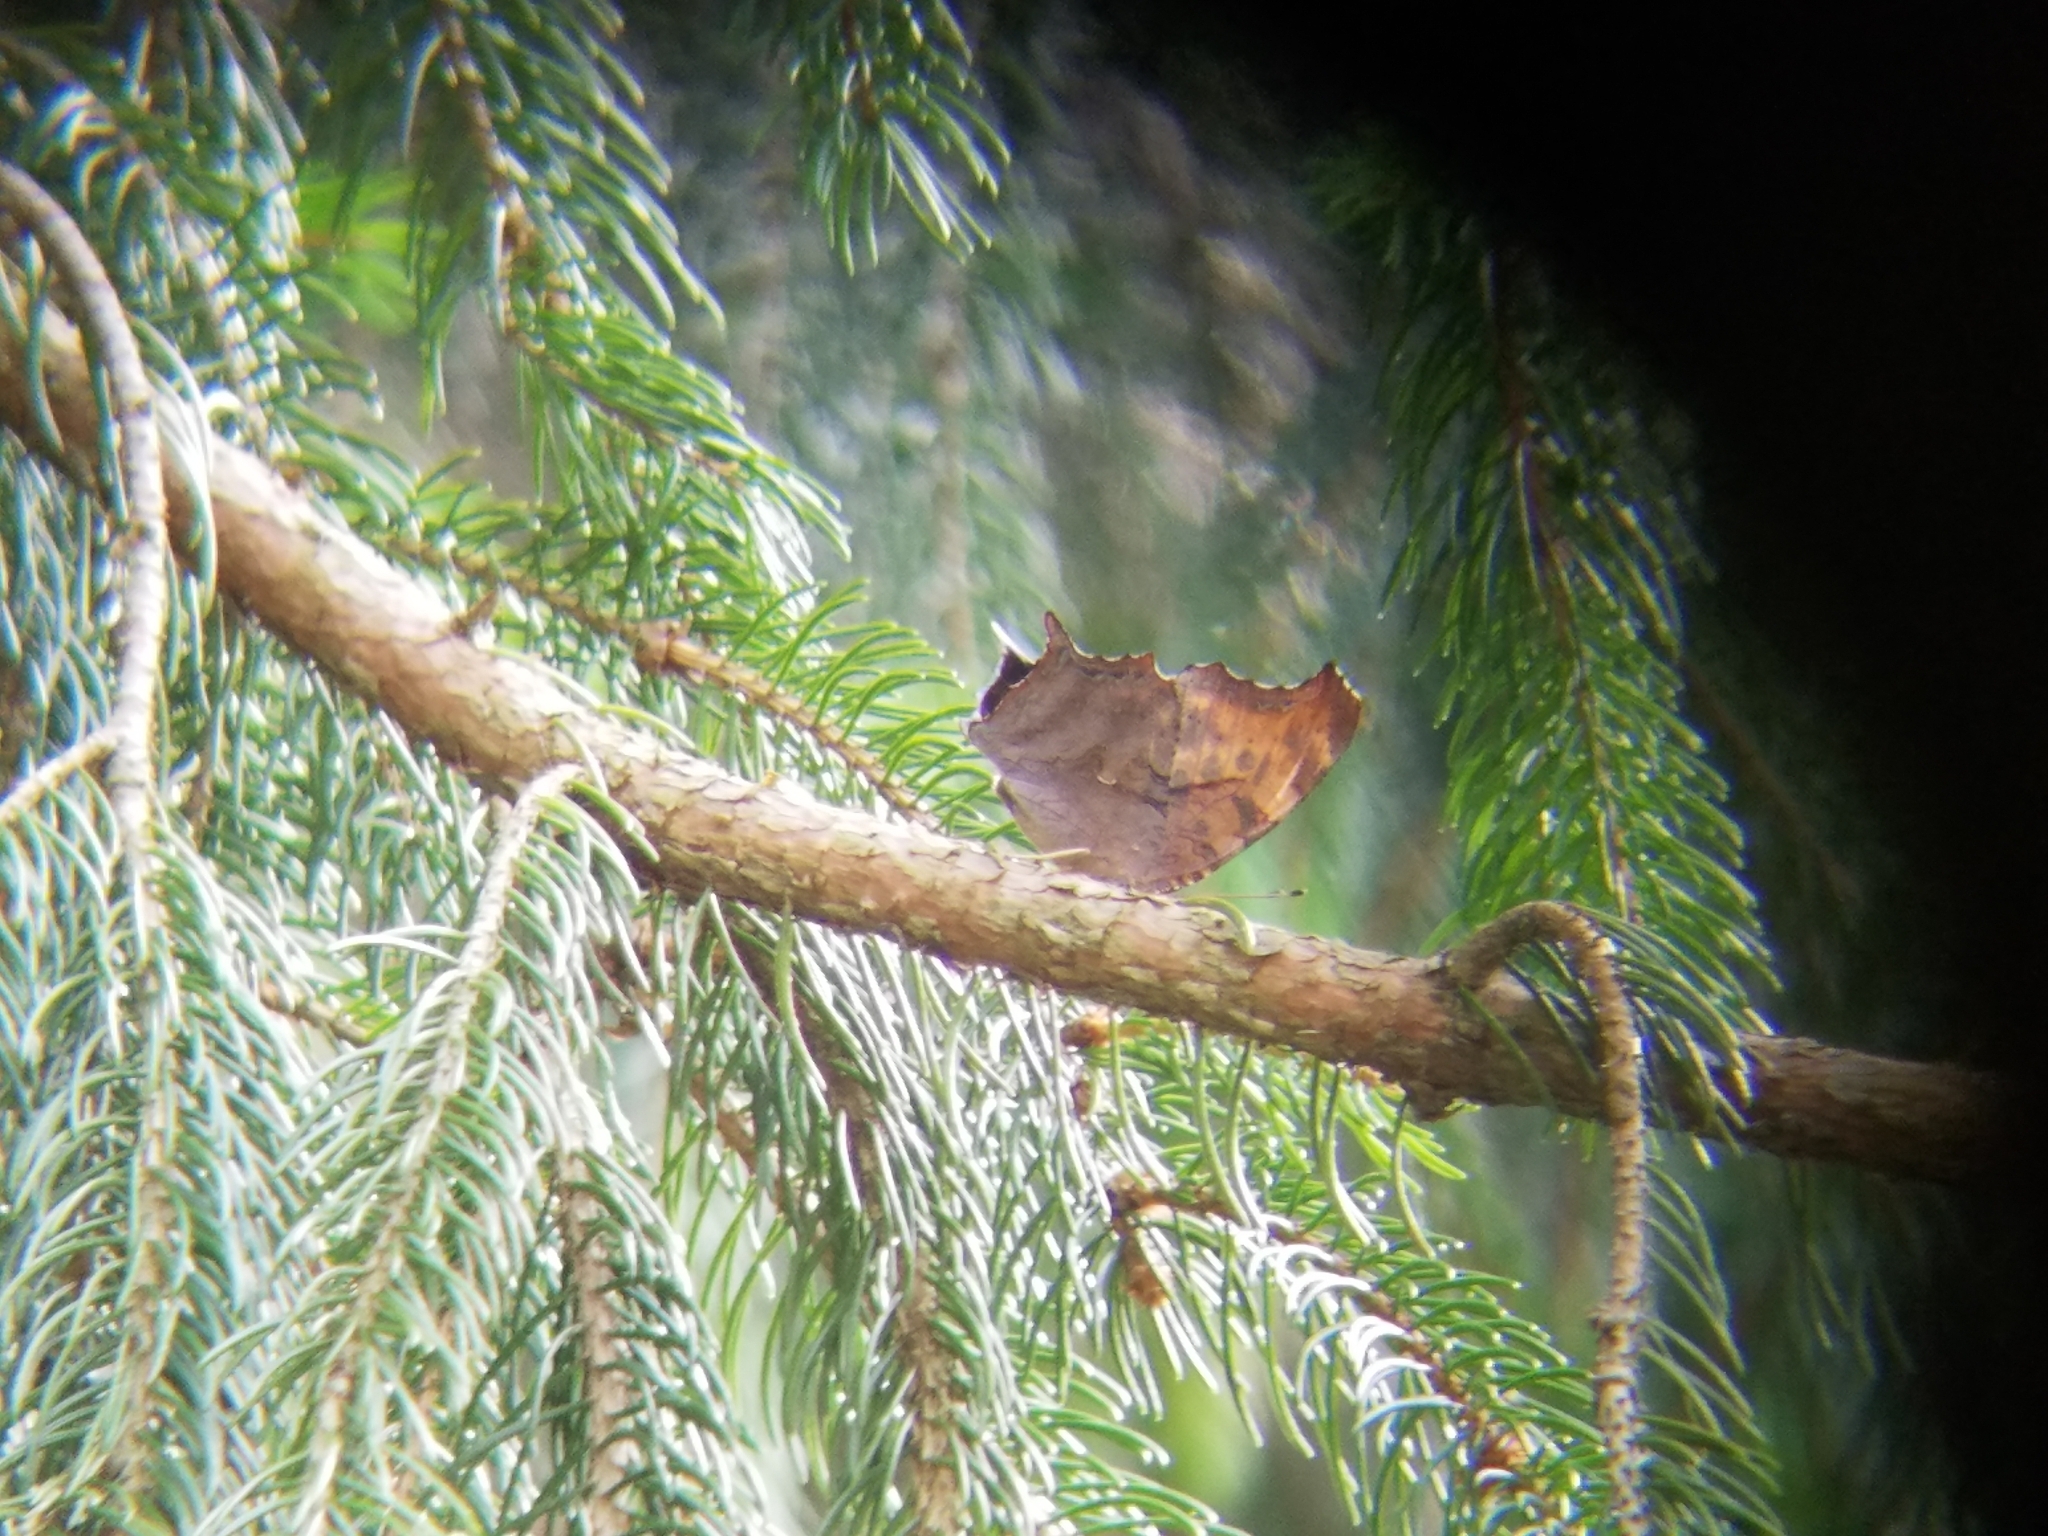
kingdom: Animalia
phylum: Arthropoda
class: Insecta
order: Lepidoptera
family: Nymphalidae
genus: Polygonia
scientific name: Polygonia interrogationis
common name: Question mark
